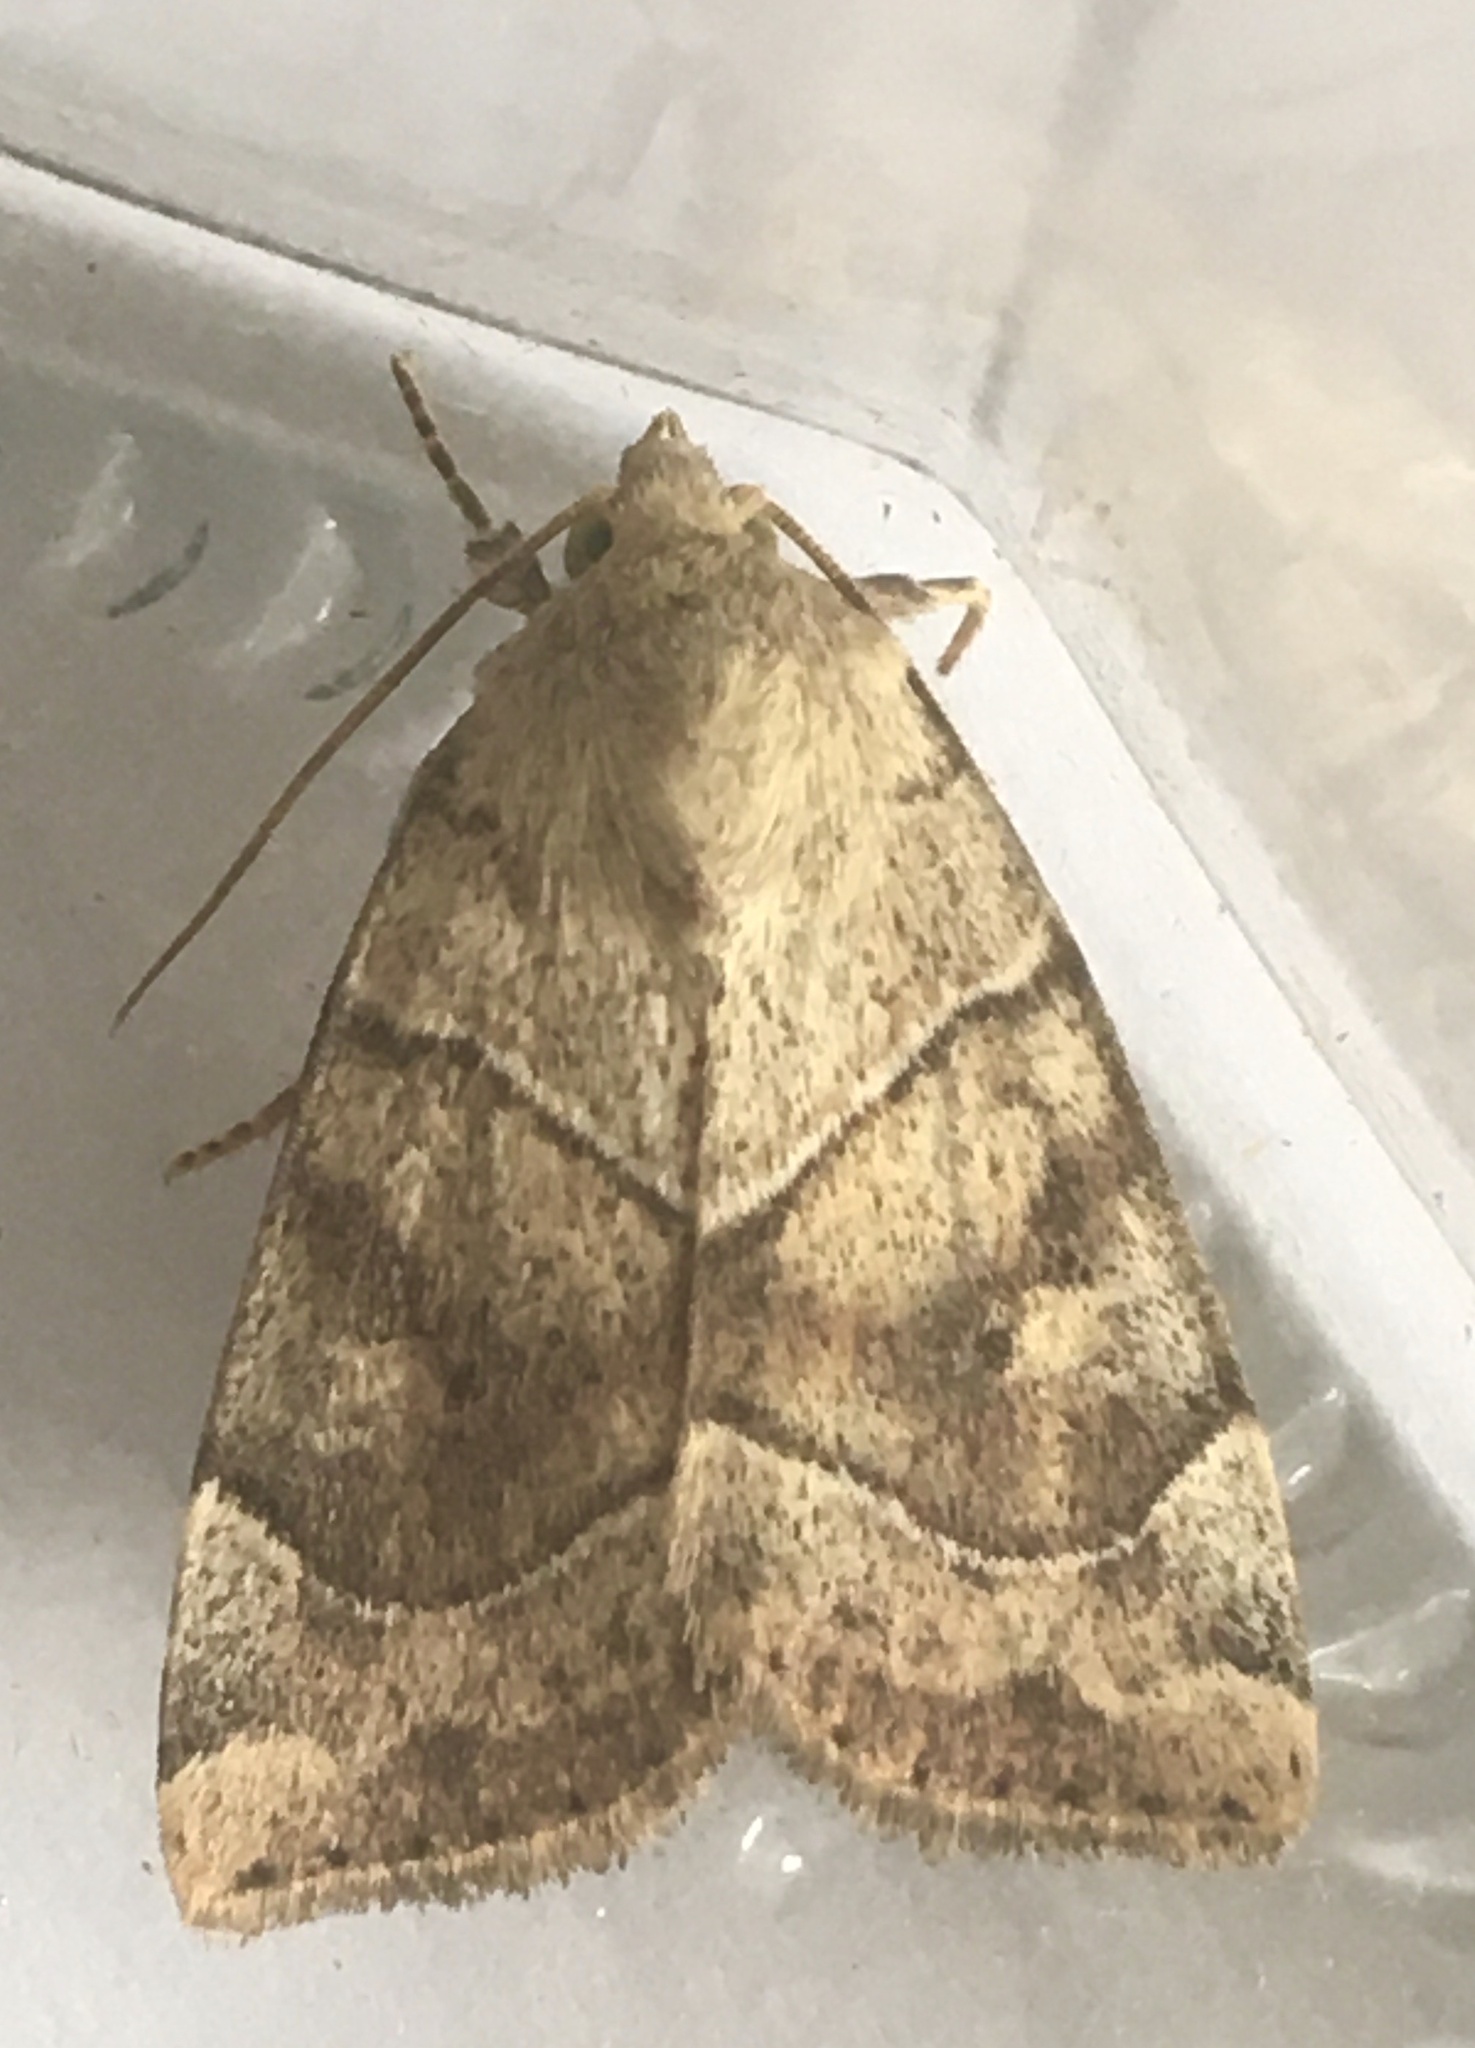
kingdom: Animalia
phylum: Arthropoda
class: Insecta
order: Lepidoptera
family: Noctuidae
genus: Cosmia
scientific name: Cosmia trapezina
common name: Dun-bar
